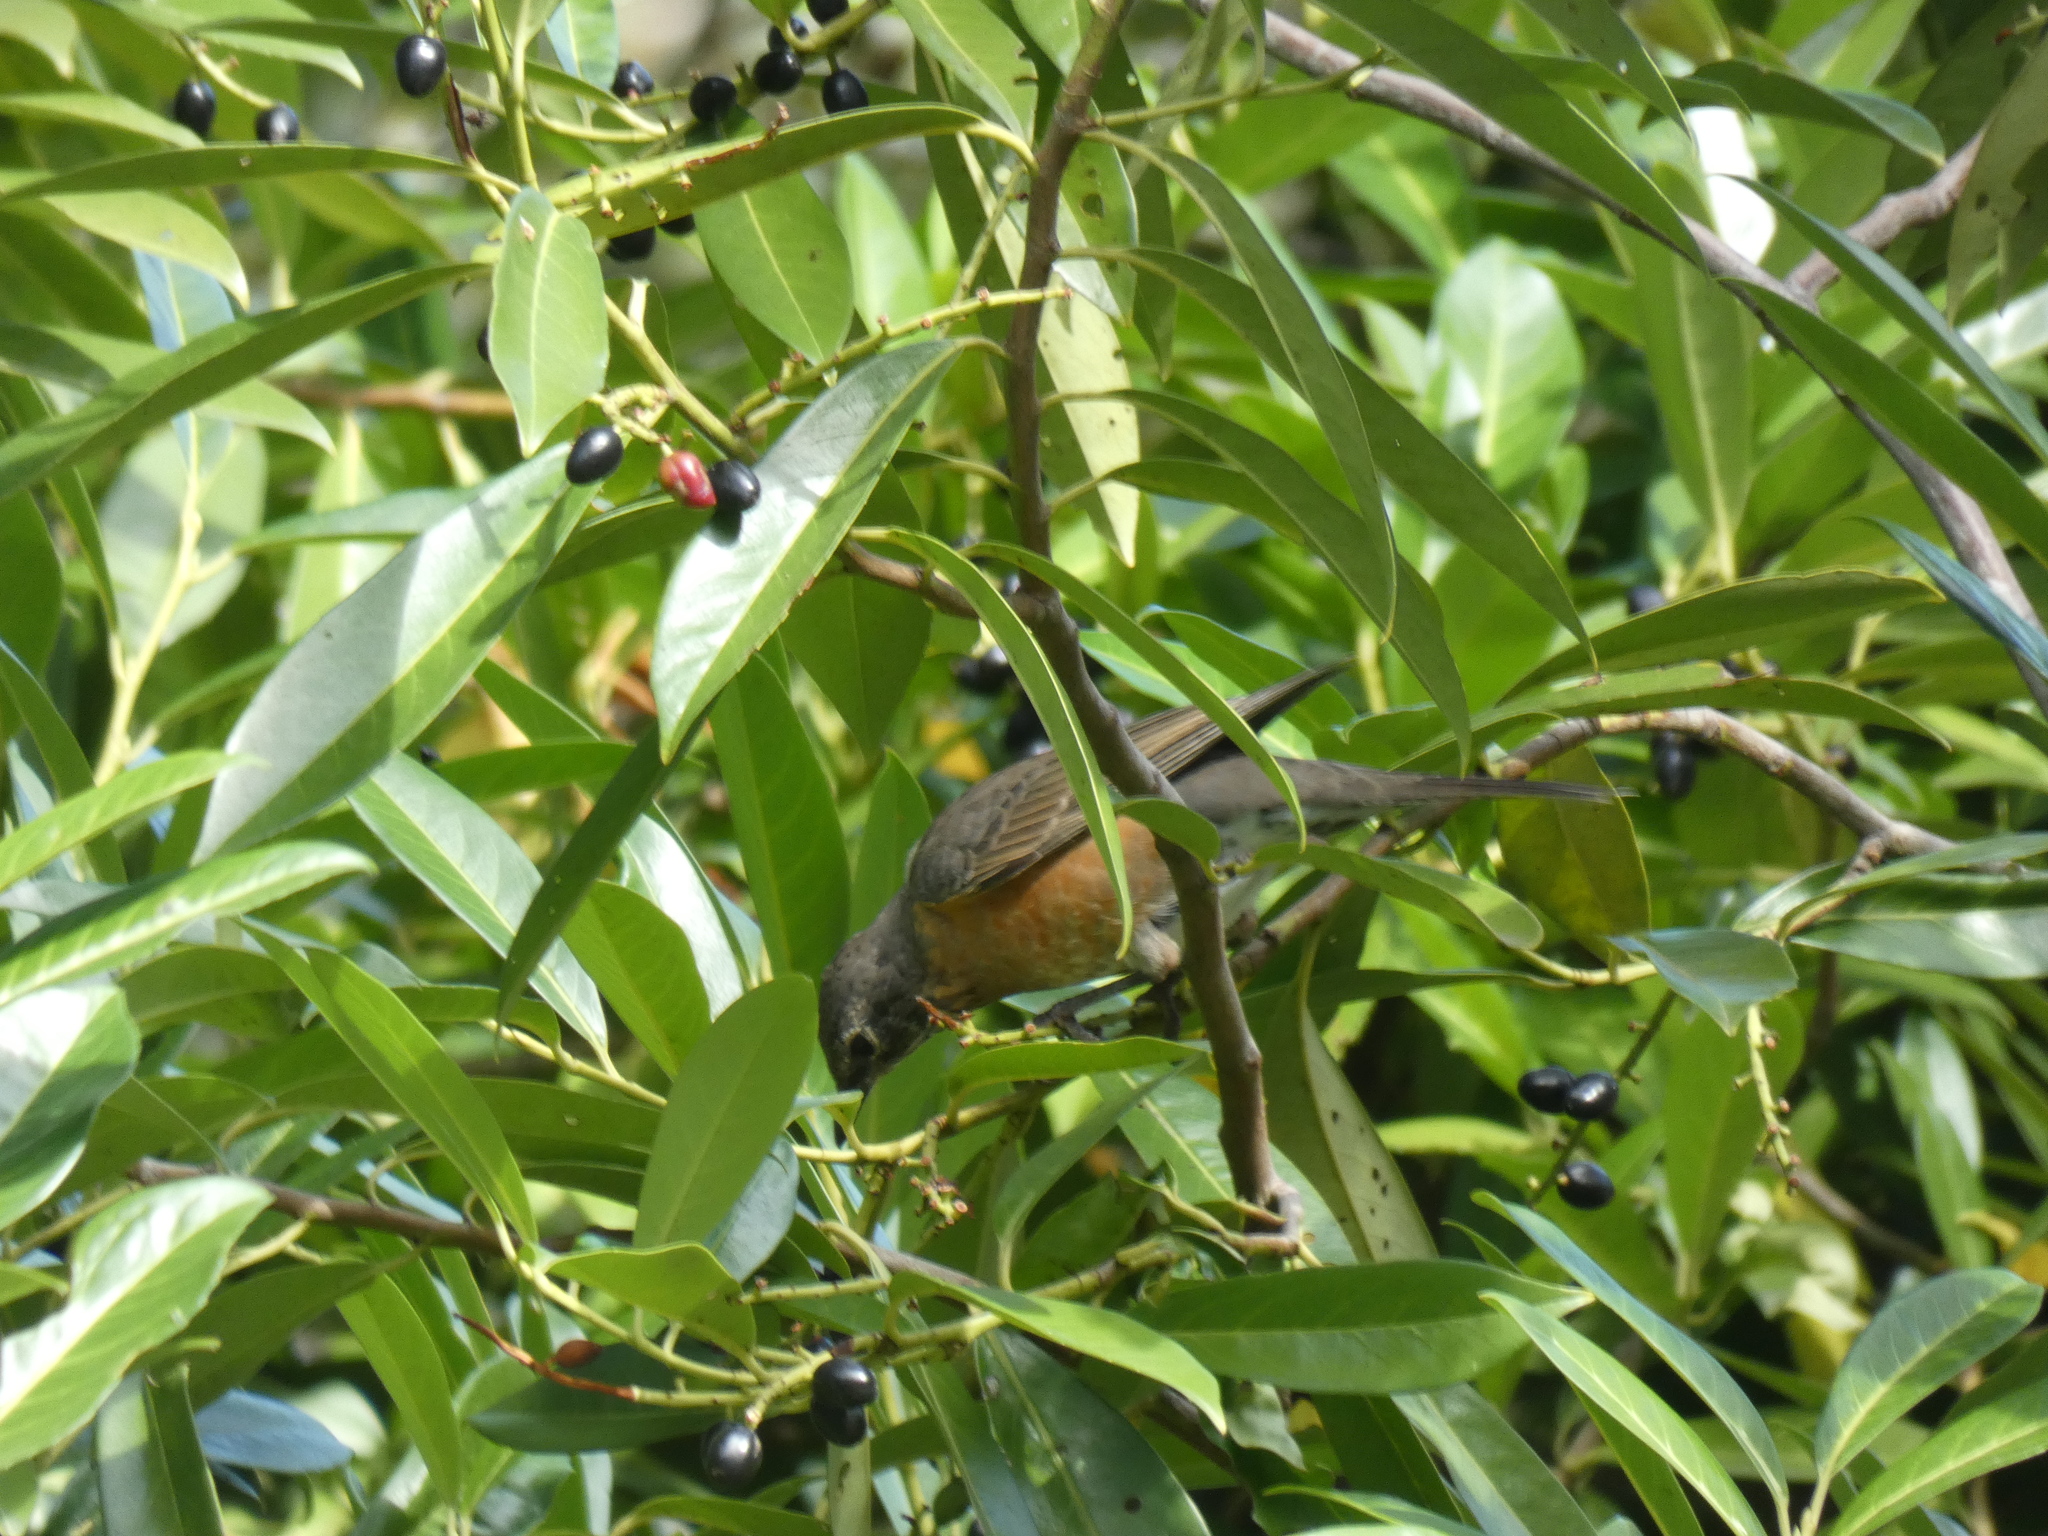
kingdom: Animalia
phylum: Chordata
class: Aves
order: Passeriformes
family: Turdidae
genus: Turdus
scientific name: Turdus migratorius
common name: American robin
